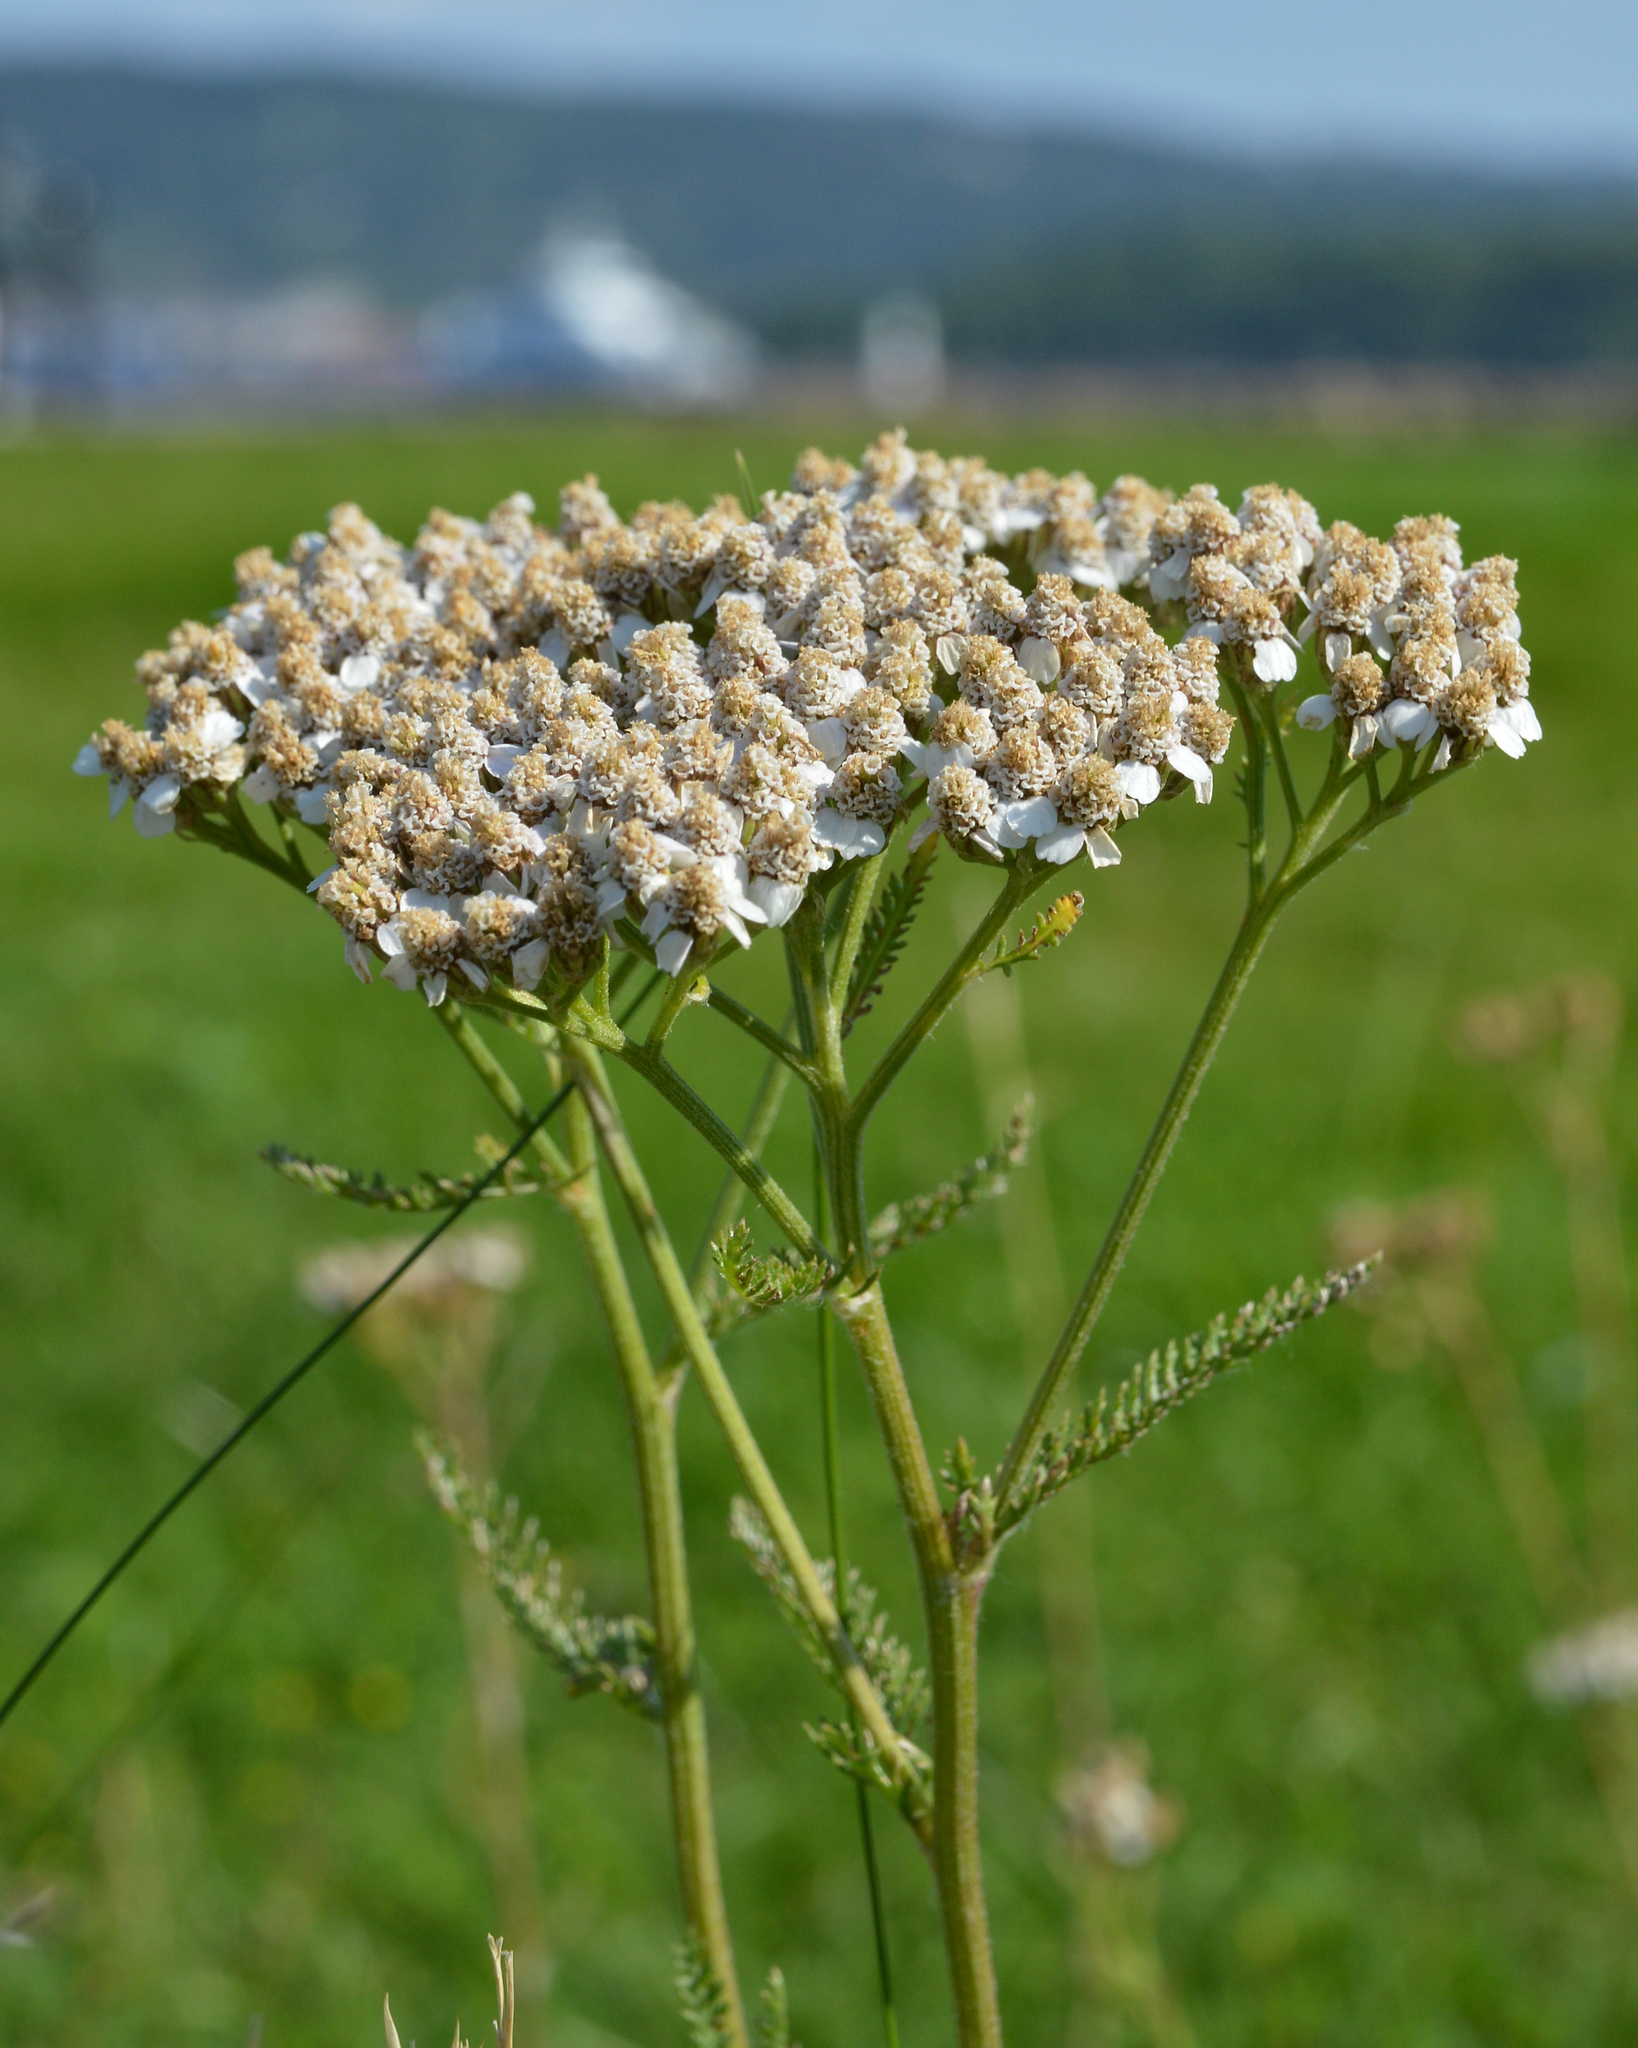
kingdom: Plantae
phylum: Tracheophyta
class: Magnoliopsida
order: Asterales
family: Asteraceae
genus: Achillea
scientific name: Achillea millefolium
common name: Yarrow
